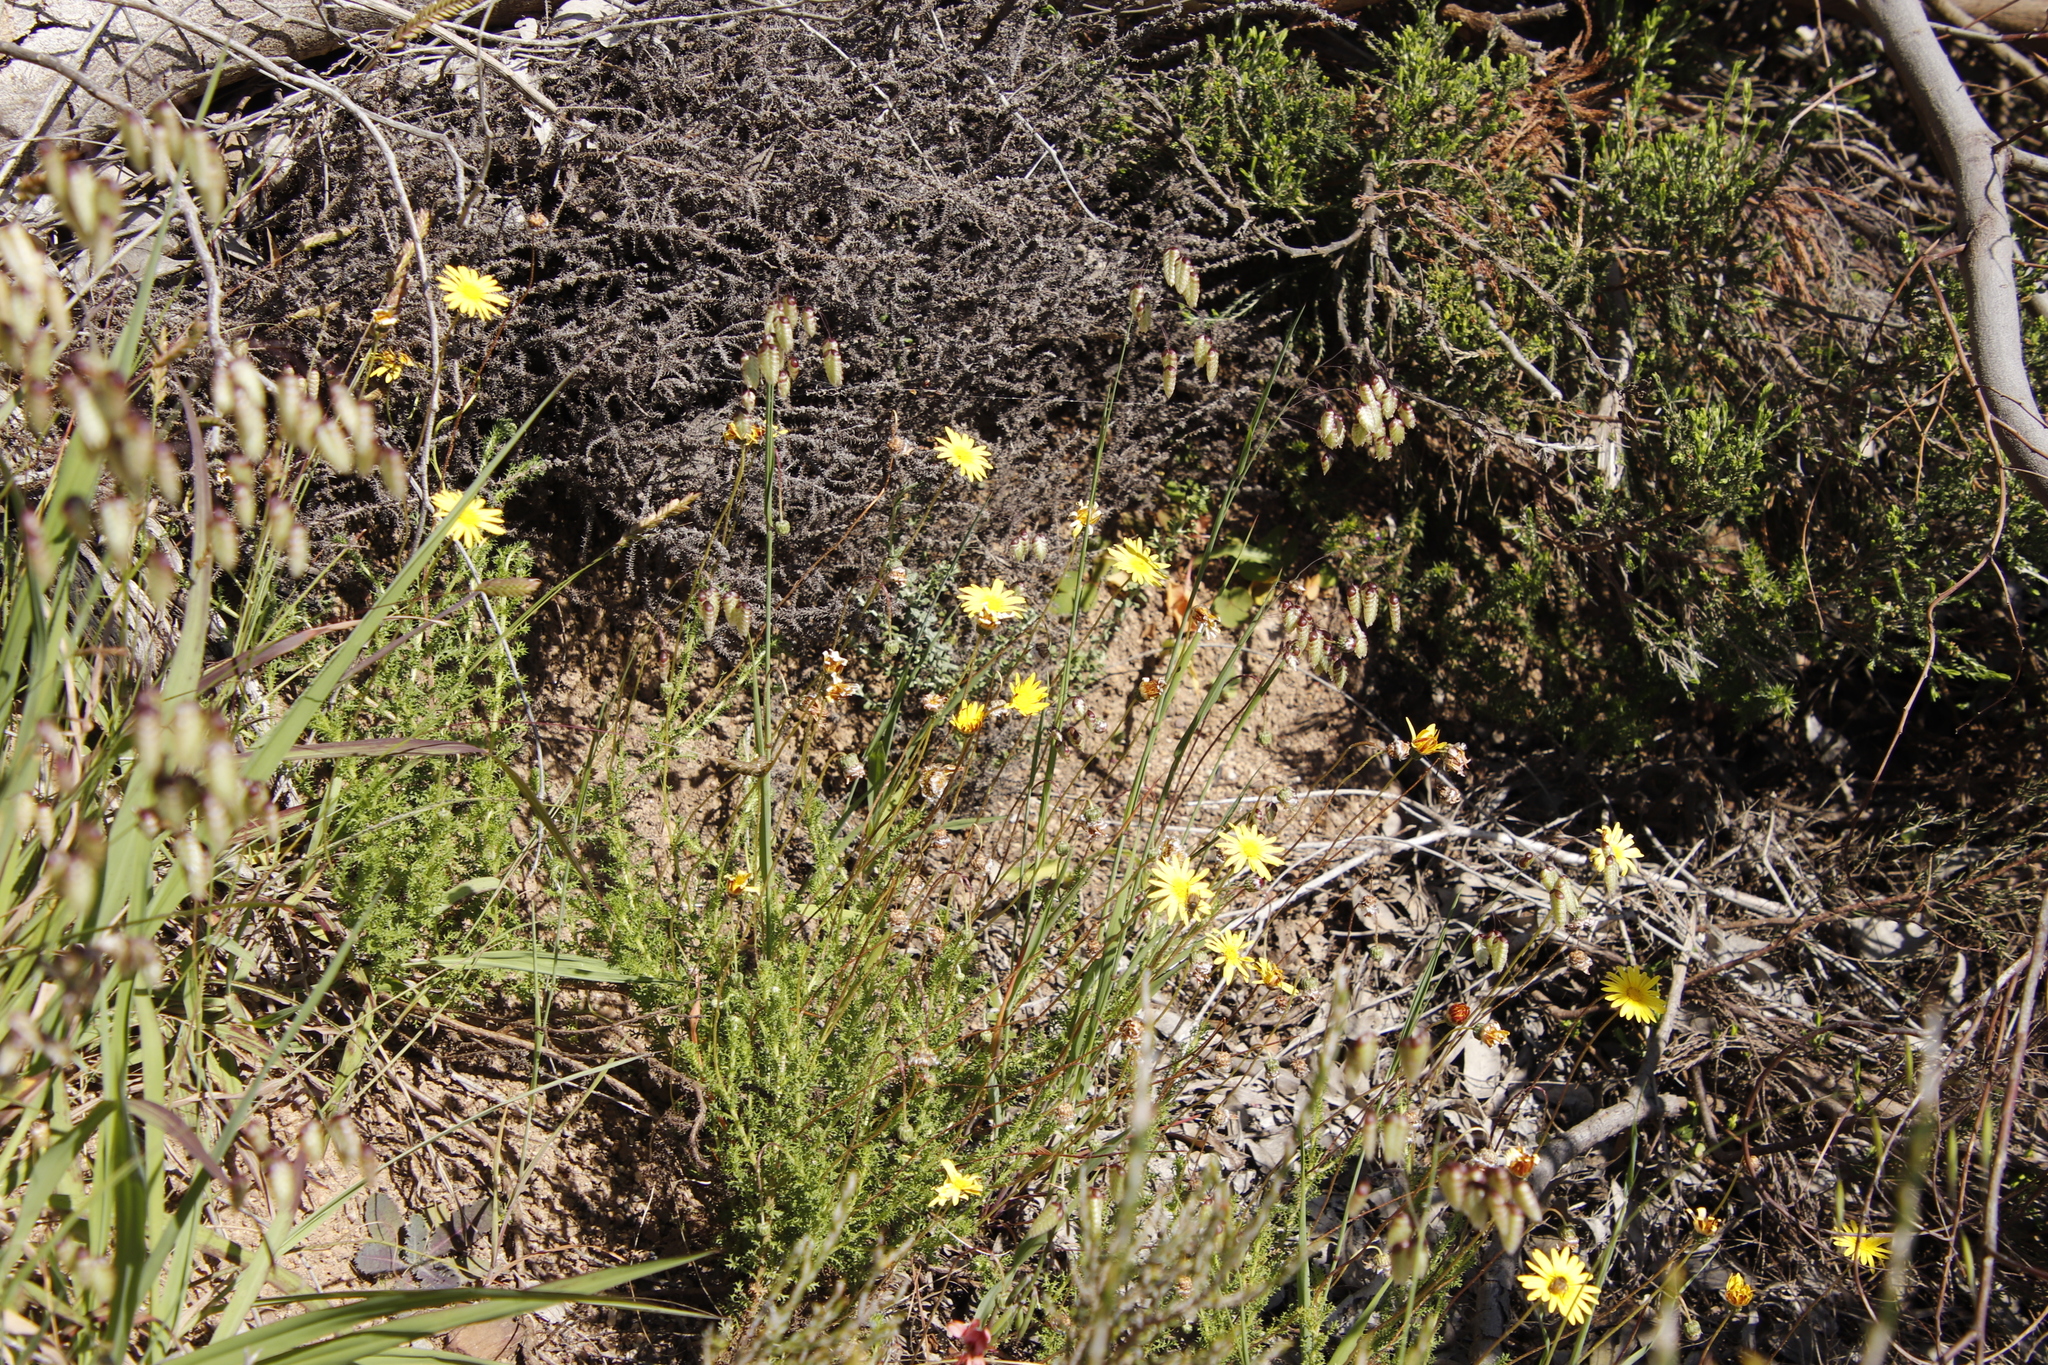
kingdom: Plantae
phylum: Tracheophyta
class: Magnoliopsida
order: Asterales
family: Asteraceae
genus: Ursinia
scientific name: Ursinia anthemoides
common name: Ursinia
